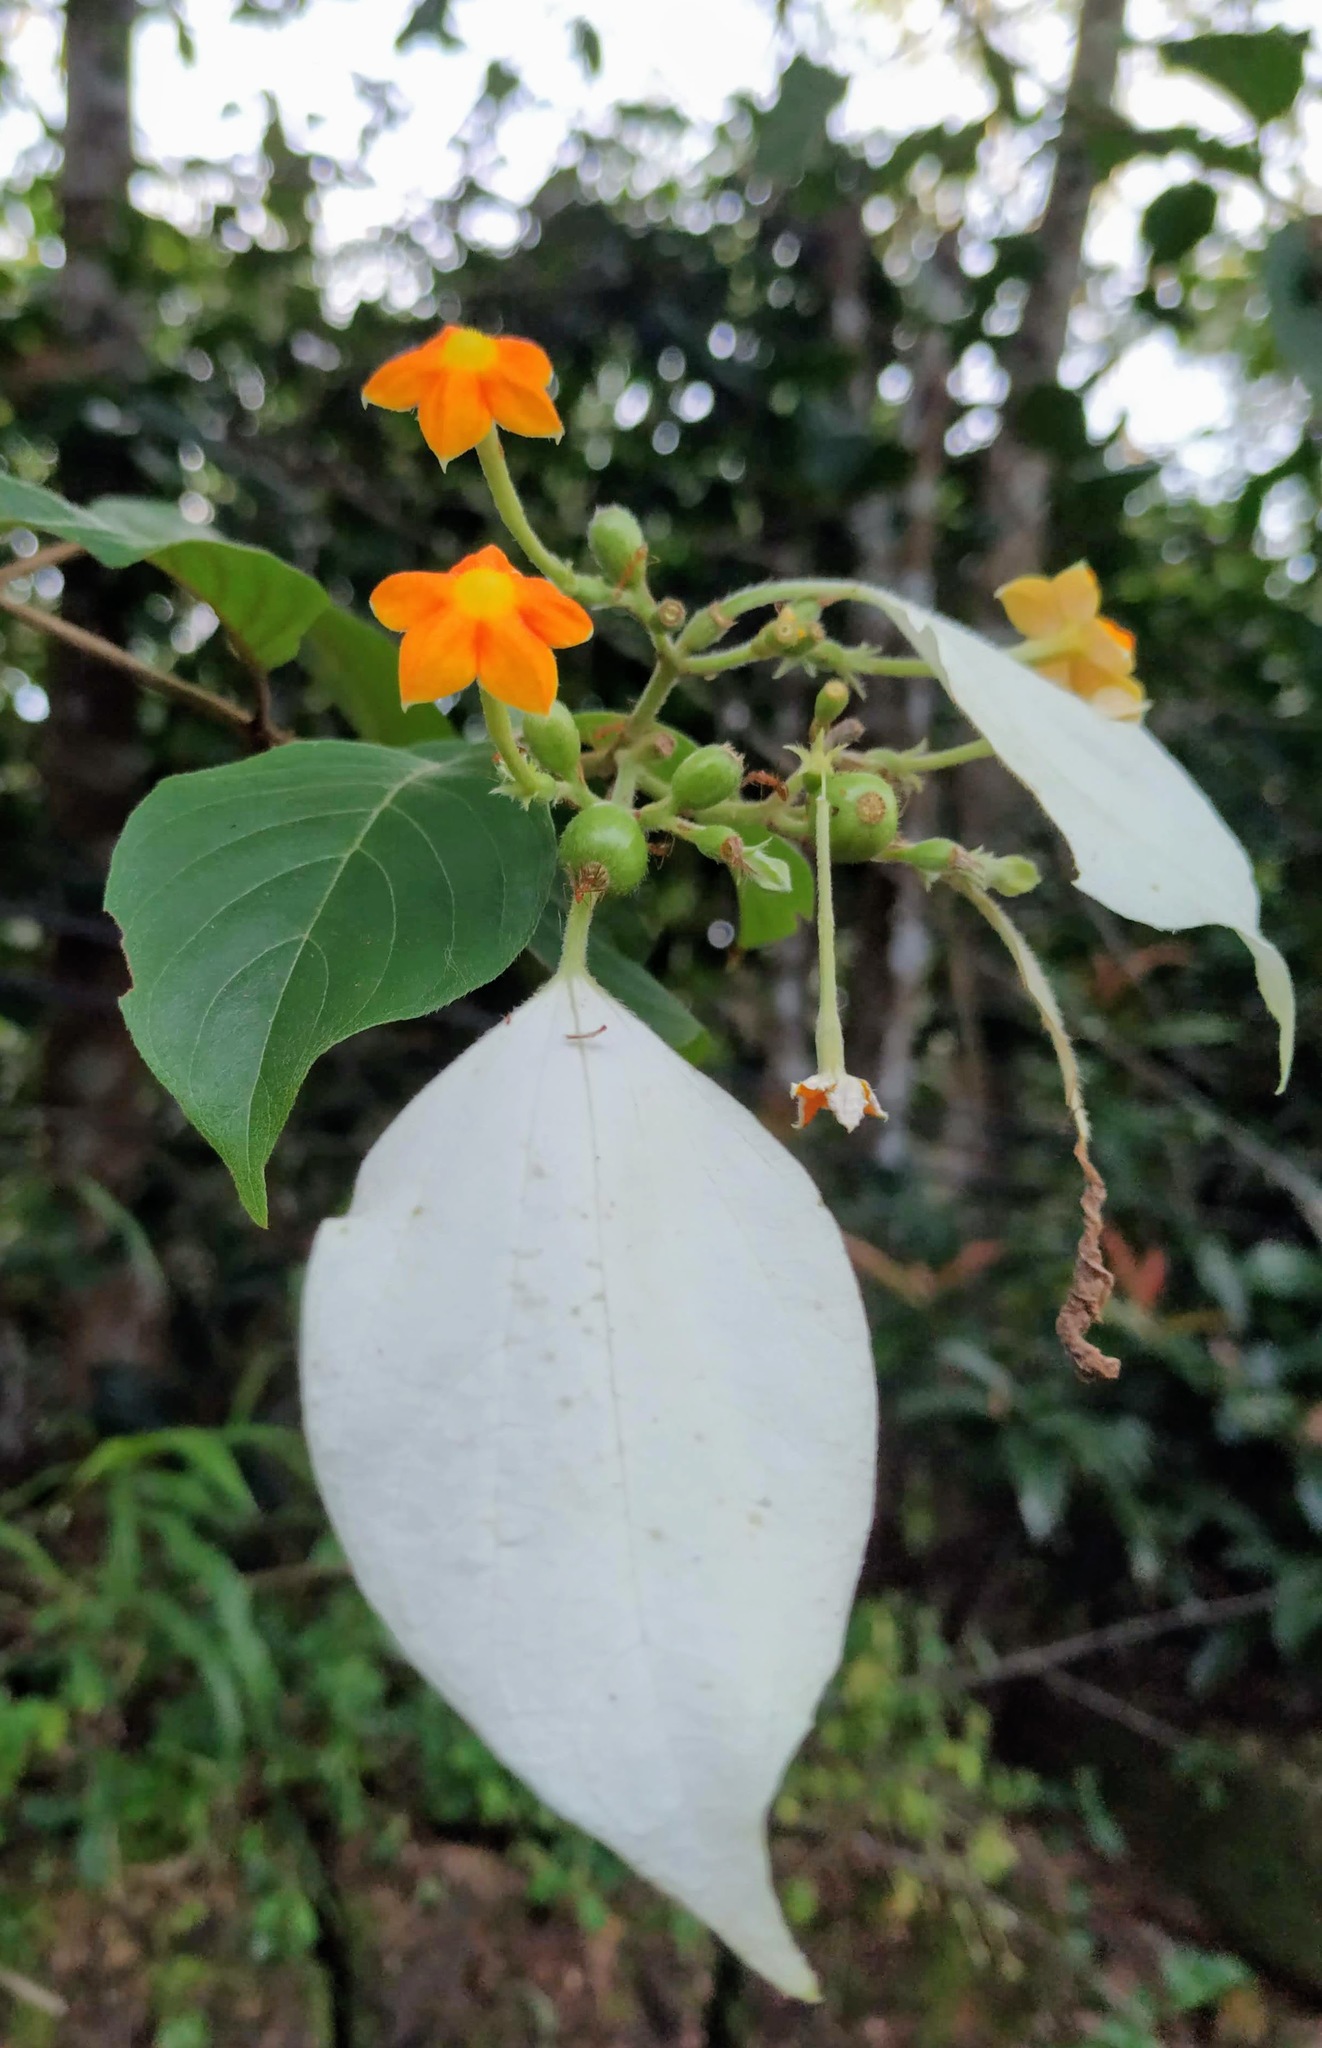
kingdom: Plantae
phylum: Tracheophyta
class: Magnoliopsida
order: Gentianales
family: Rubiaceae
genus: Mussaenda
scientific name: Mussaenda frondosa
